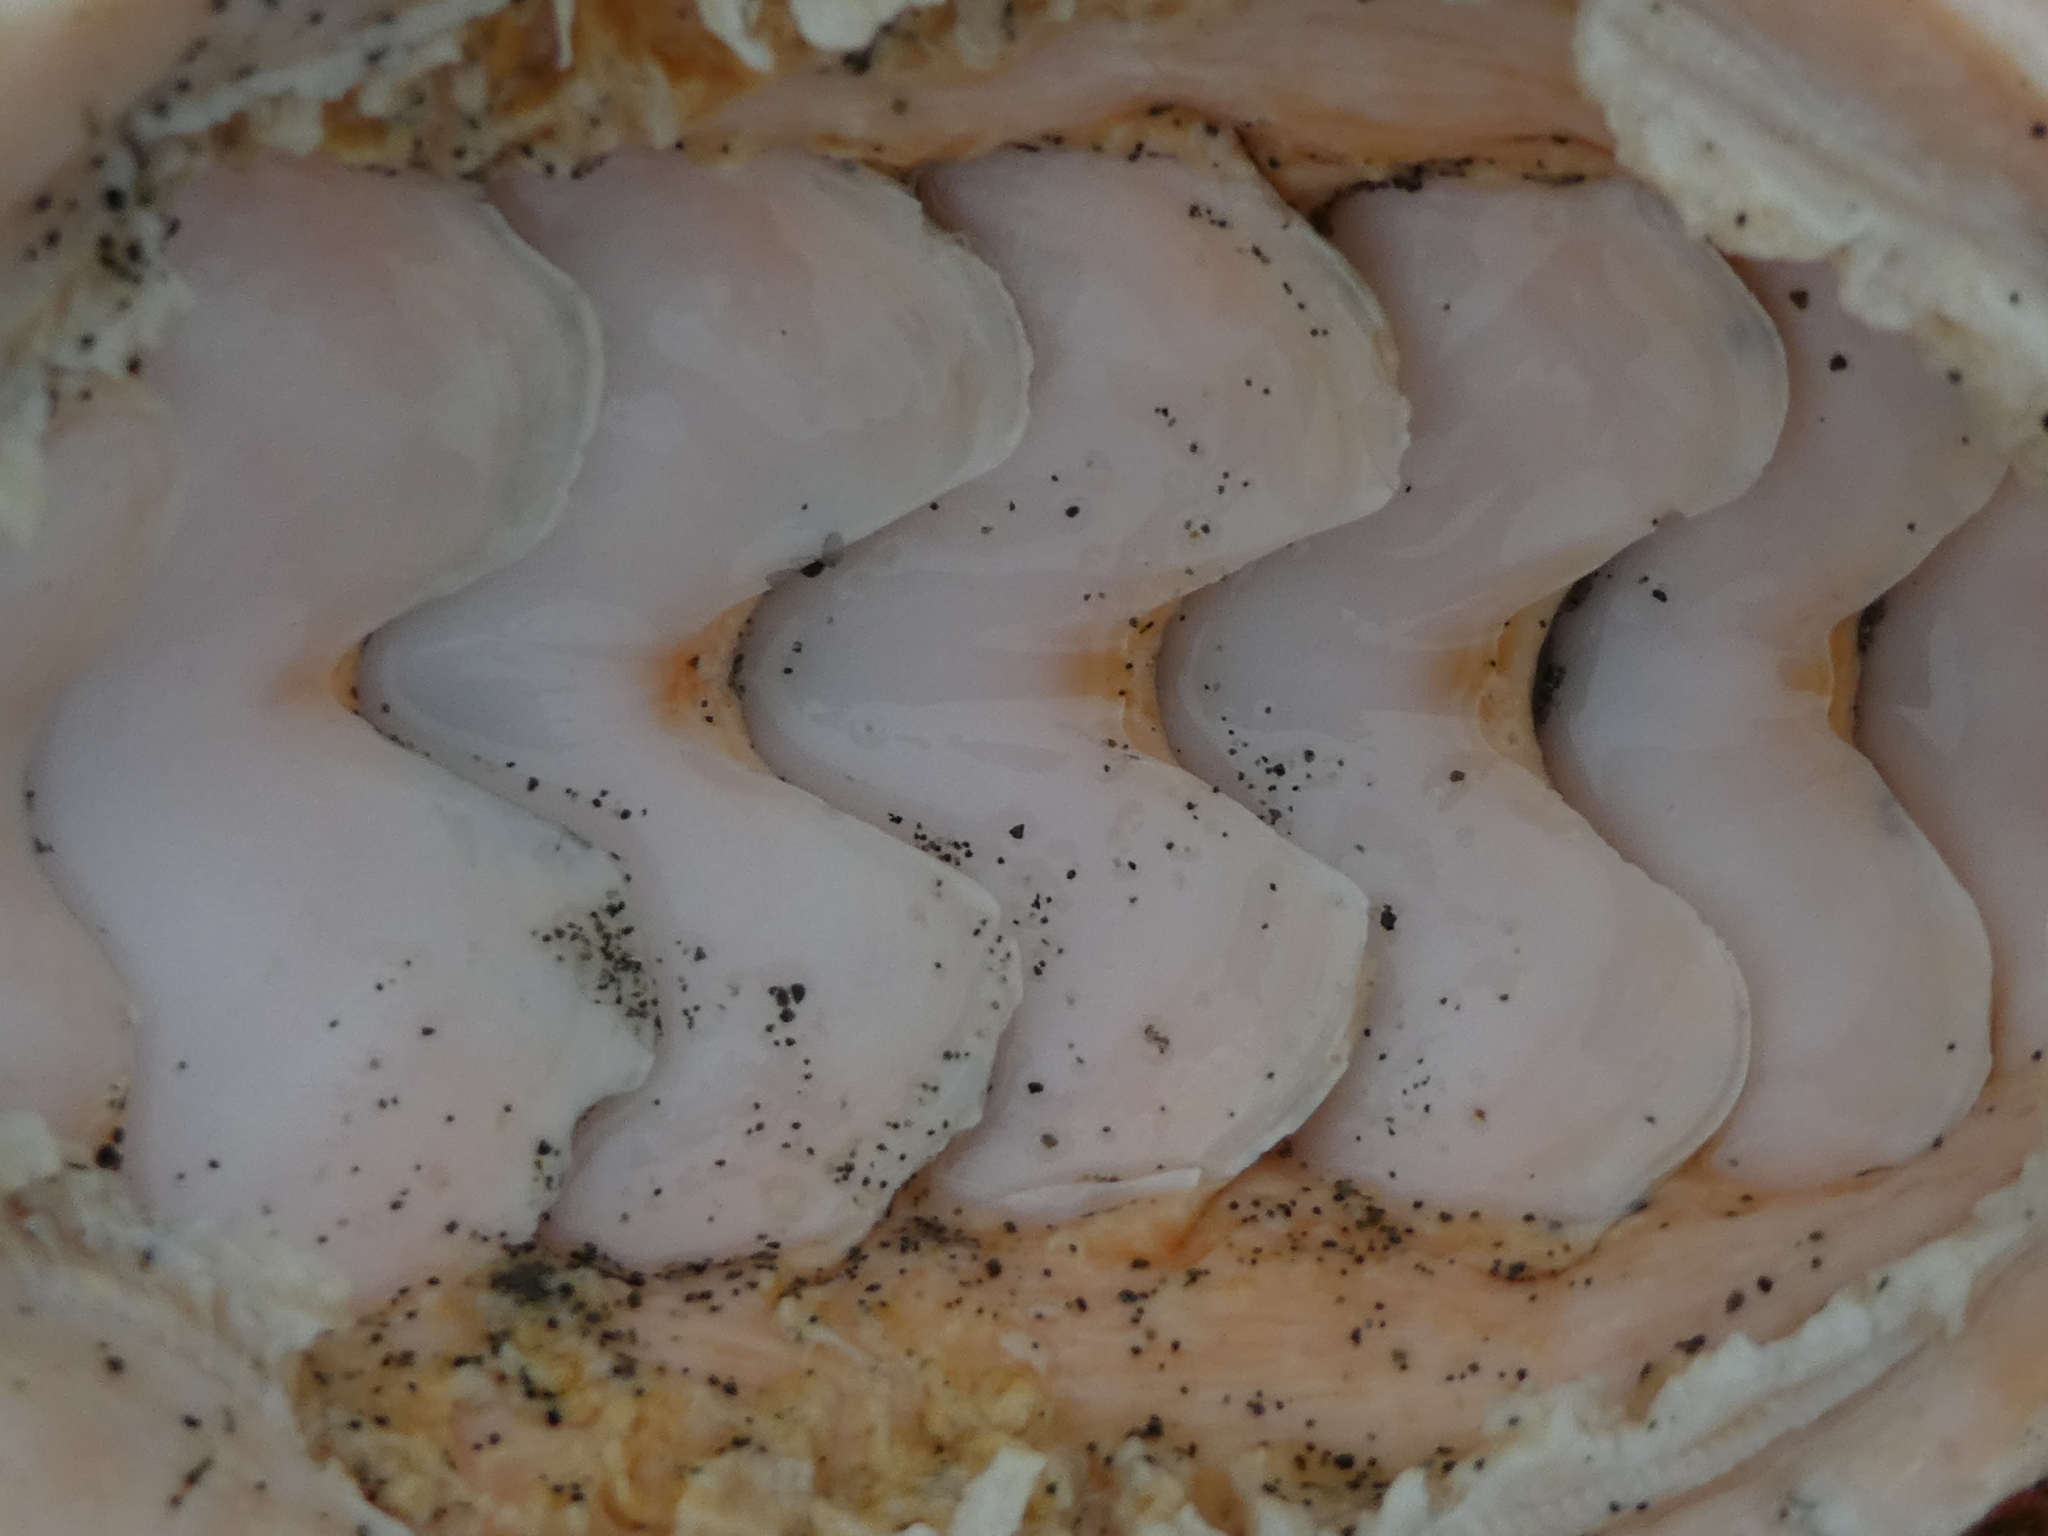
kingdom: Animalia
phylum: Mollusca
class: Polyplacophora
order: Chitonida
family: Acanthochitonidae
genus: Cryptochiton
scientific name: Cryptochiton stelleri
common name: Giant pacific chiton
